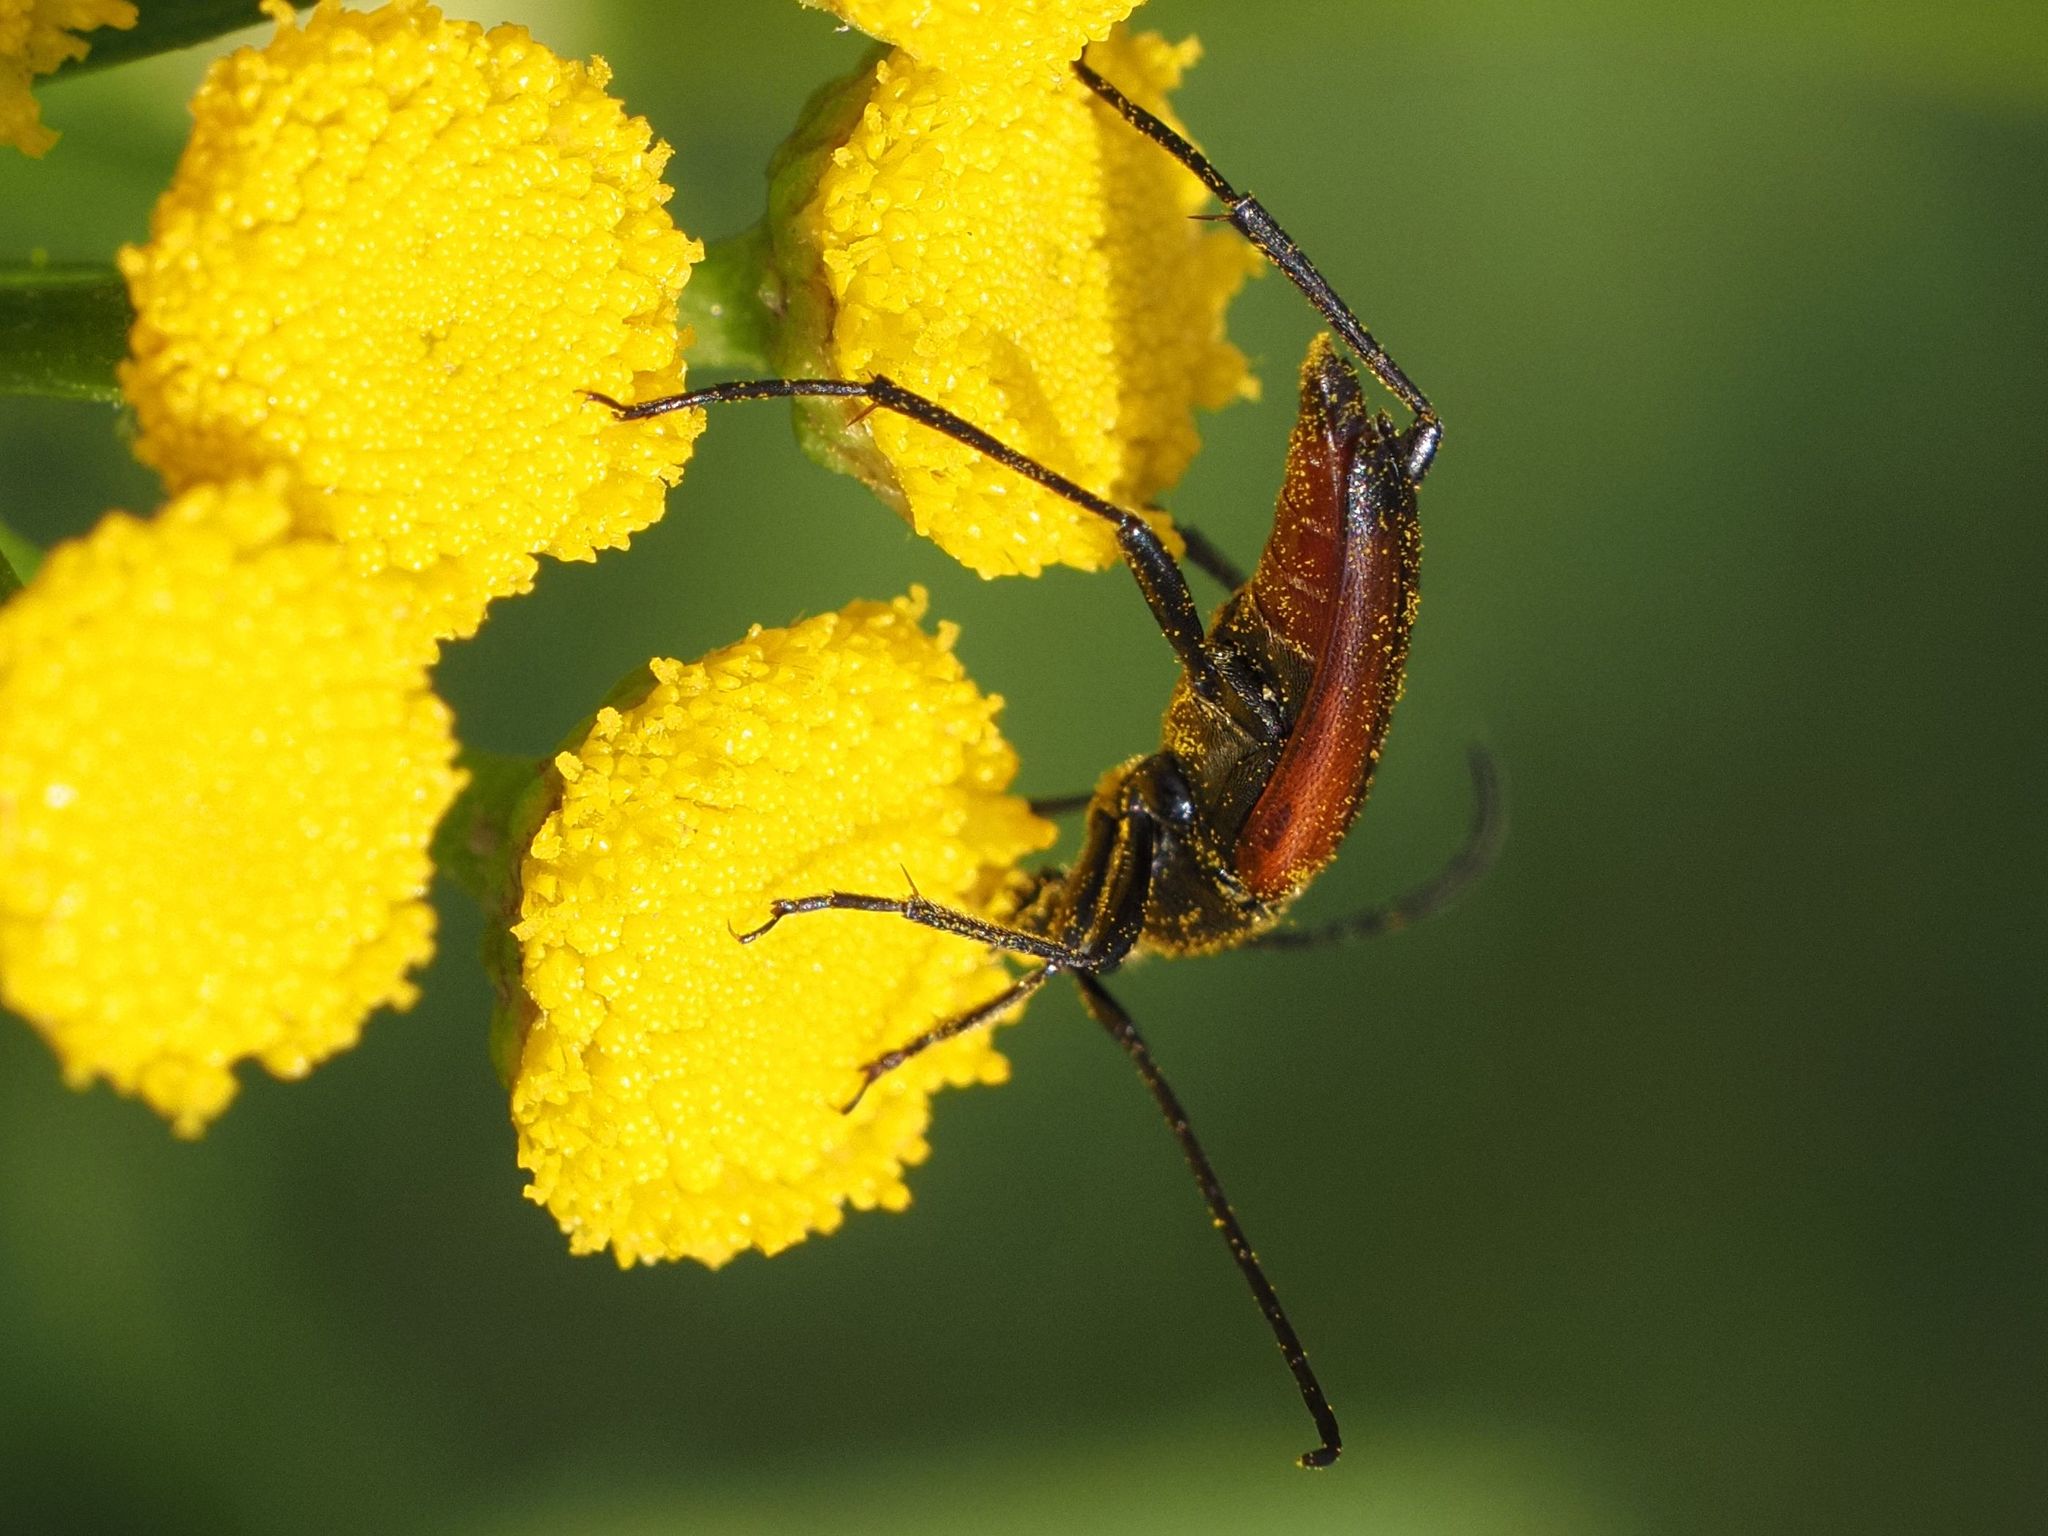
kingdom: Animalia
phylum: Arthropoda
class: Insecta
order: Coleoptera
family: Cerambycidae
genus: Stenurella
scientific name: Stenurella bifasciata
